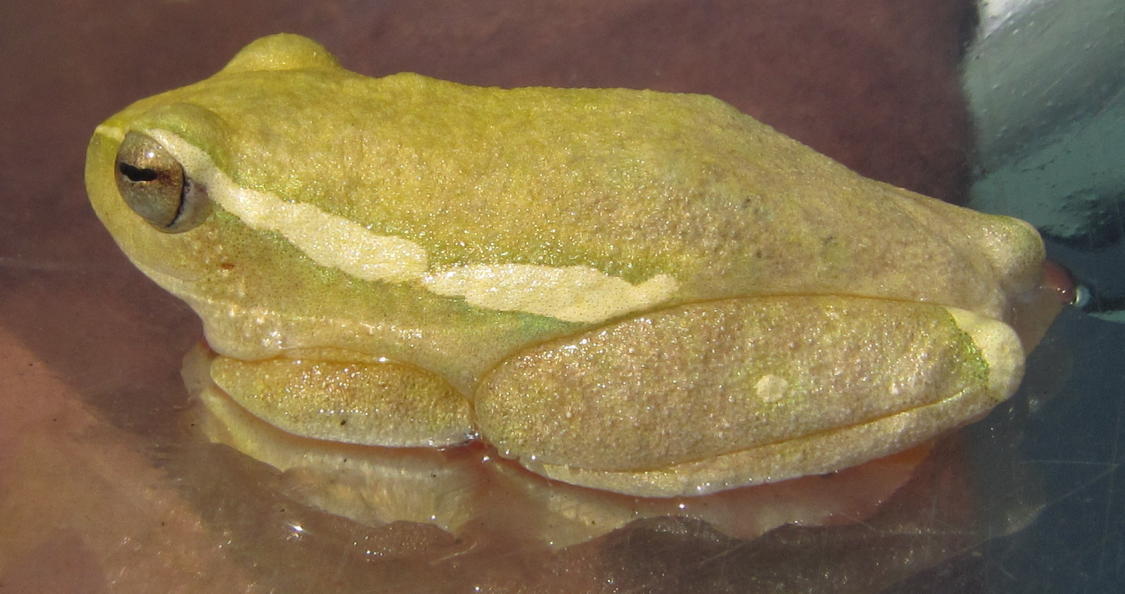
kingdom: Animalia
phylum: Chordata
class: Amphibia
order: Anura
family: Hyperoliidae
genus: Hyperolius
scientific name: Hyperolius semidiscus
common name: Yellow-striped reed frog
